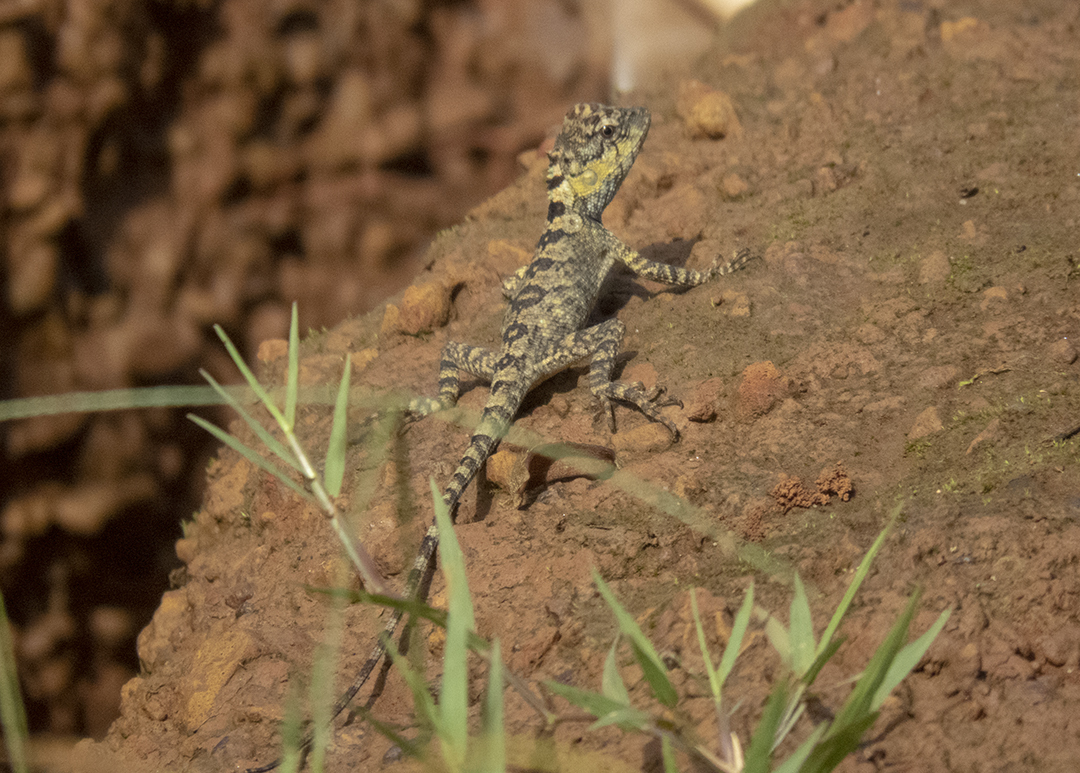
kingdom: Animalia
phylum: Chordata
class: Squamata
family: Agamidae
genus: Calotes
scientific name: Calotes bachae
